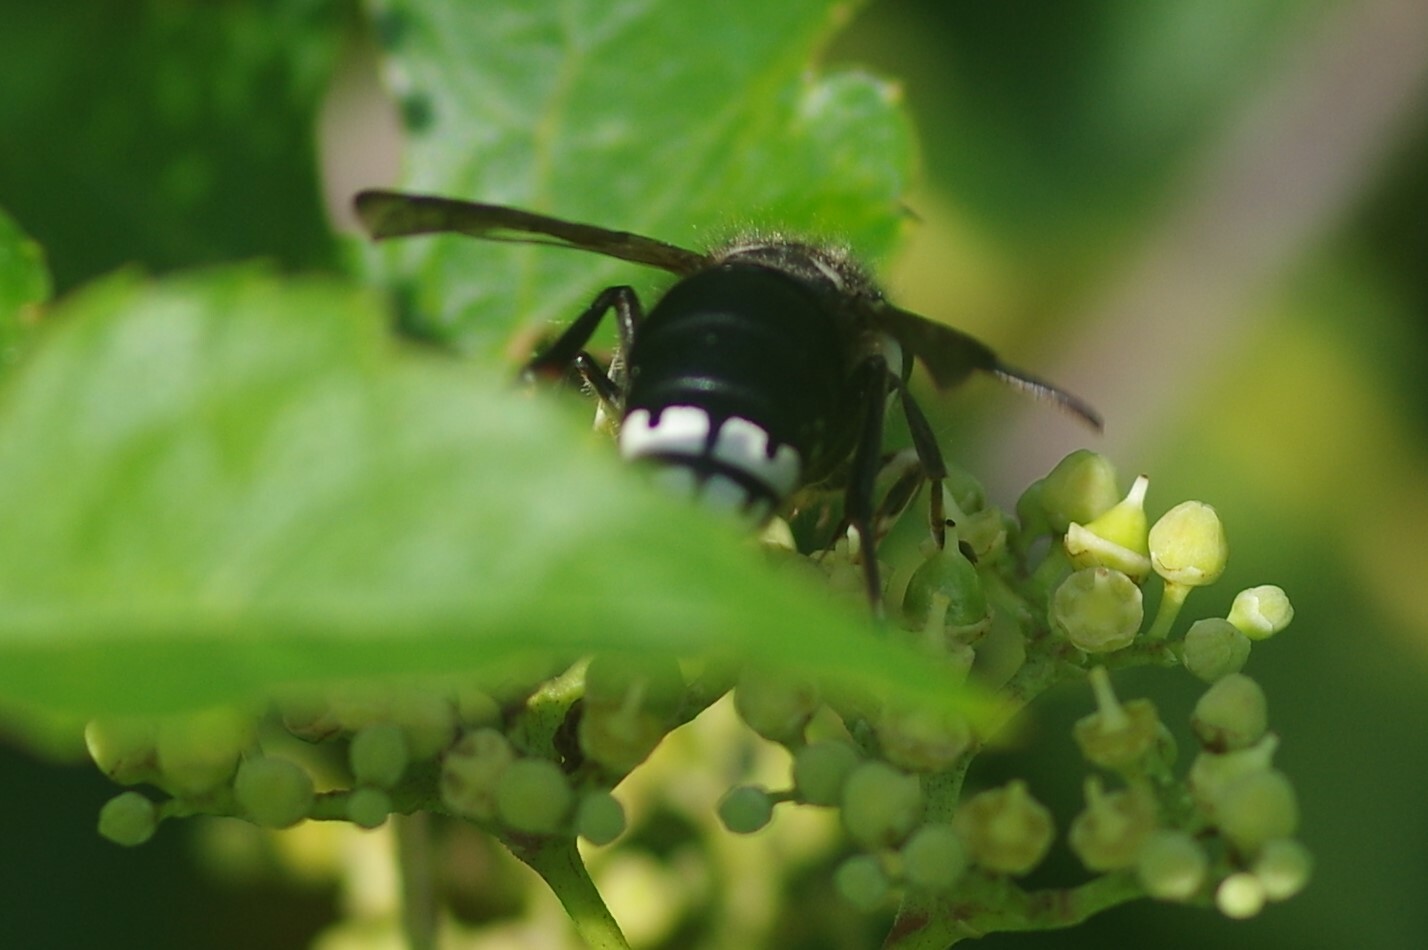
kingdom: Animalia
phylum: Arthropoda
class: Insecta
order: Hymenoptera
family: Vespidae
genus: Dolichovespula
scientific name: Dolichovespula maculata
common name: Bald-faced hornet
